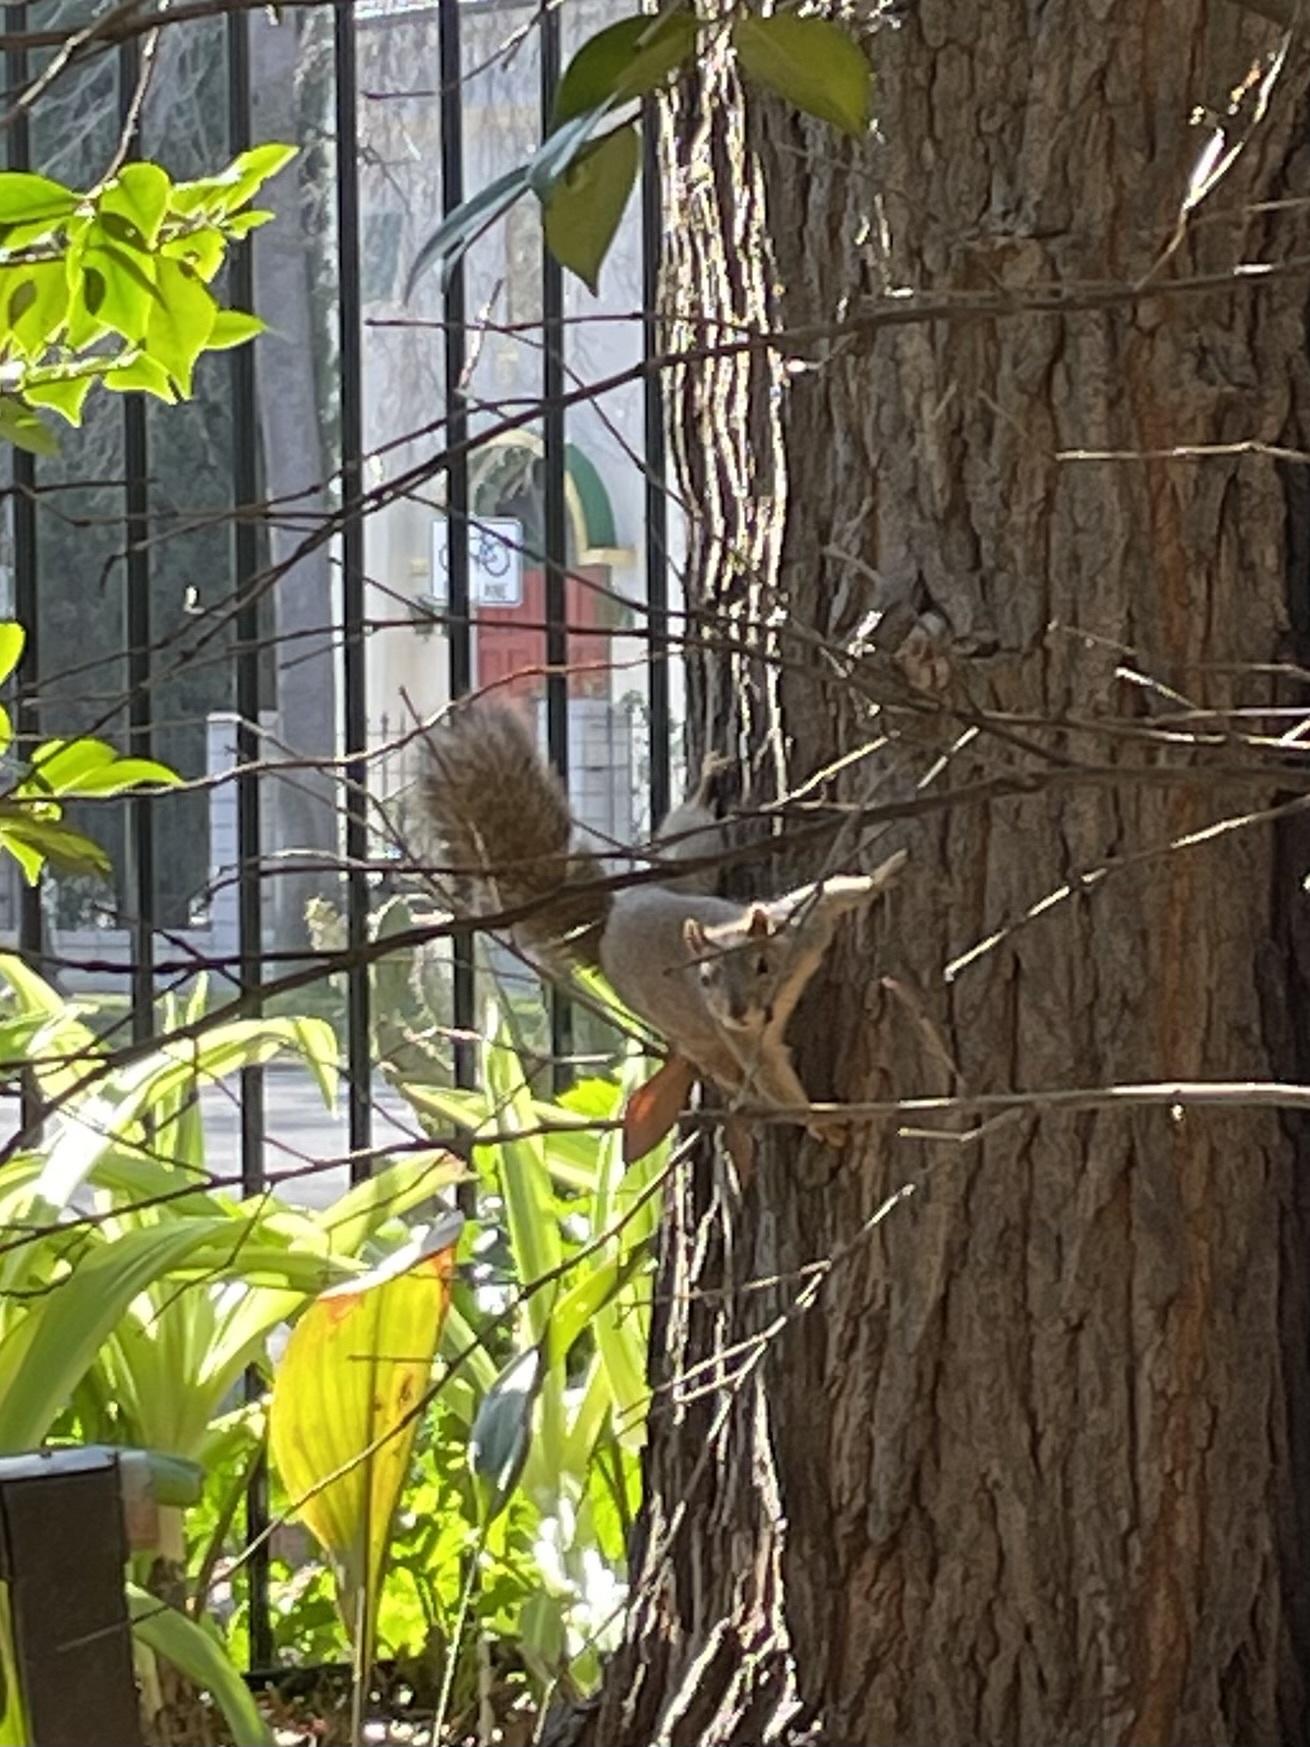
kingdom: Animalia
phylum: Chordata
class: Mammalia
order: Rodentia
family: Sciuridae
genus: Sciurus
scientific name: Sciurus niger
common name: Fox squirrel
